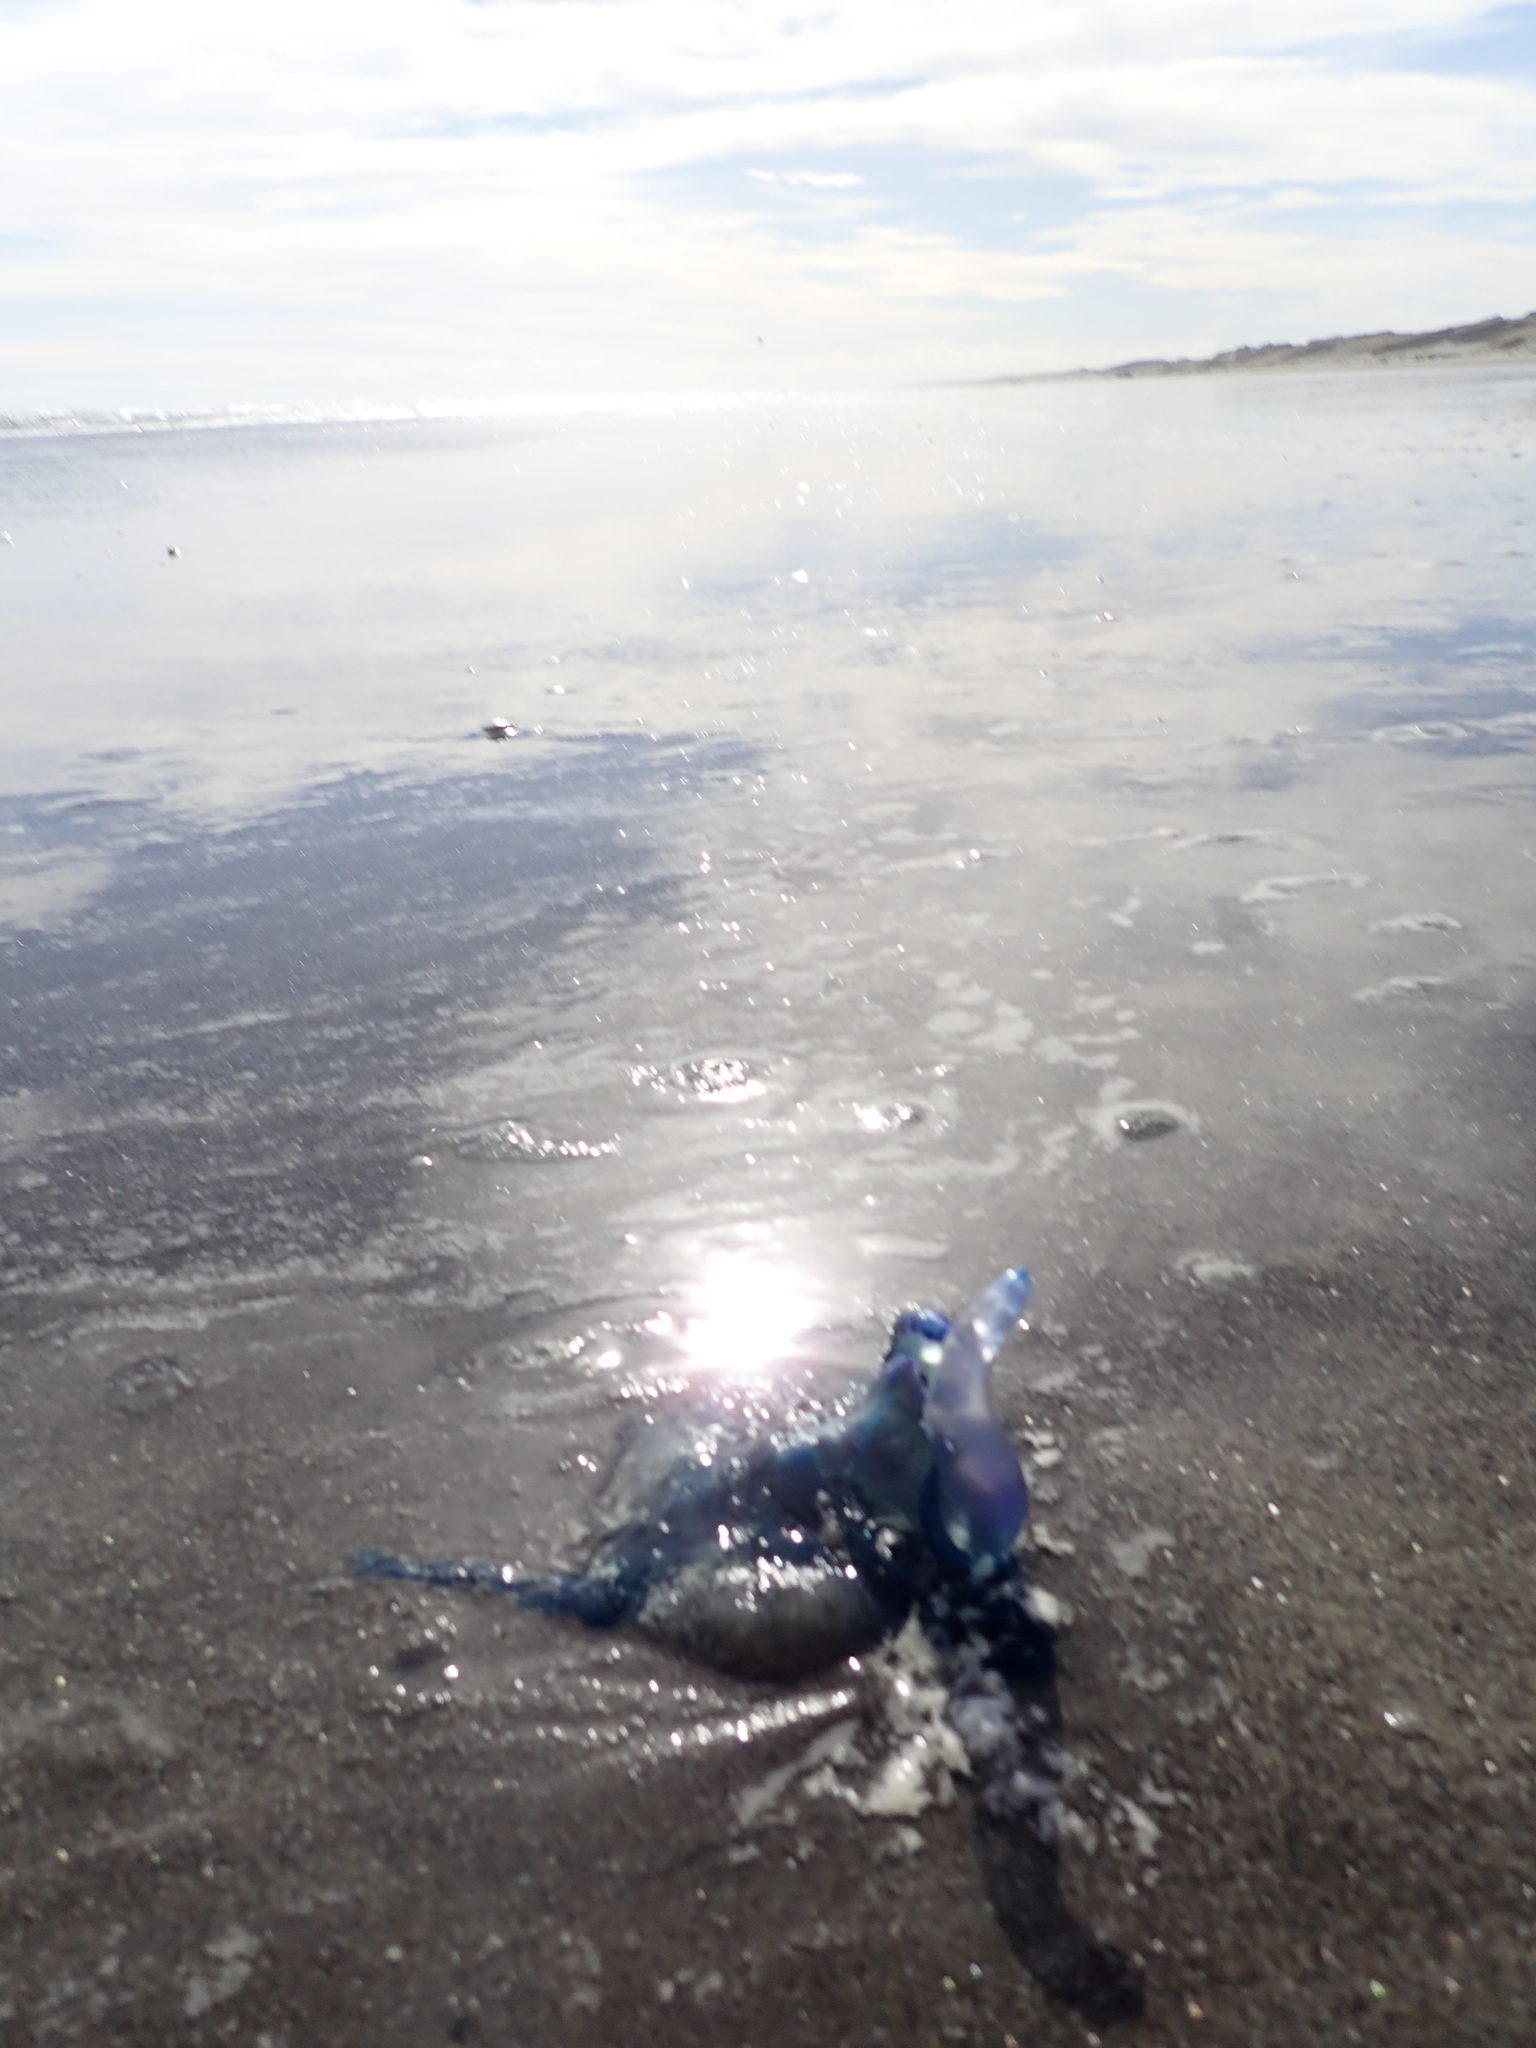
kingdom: Animalia
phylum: Cnidaria
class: Hydrozoa
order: Siphonophorae
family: Physaliidae
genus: Physalia
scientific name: Physalia physalis
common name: Portuguese man-of-war
